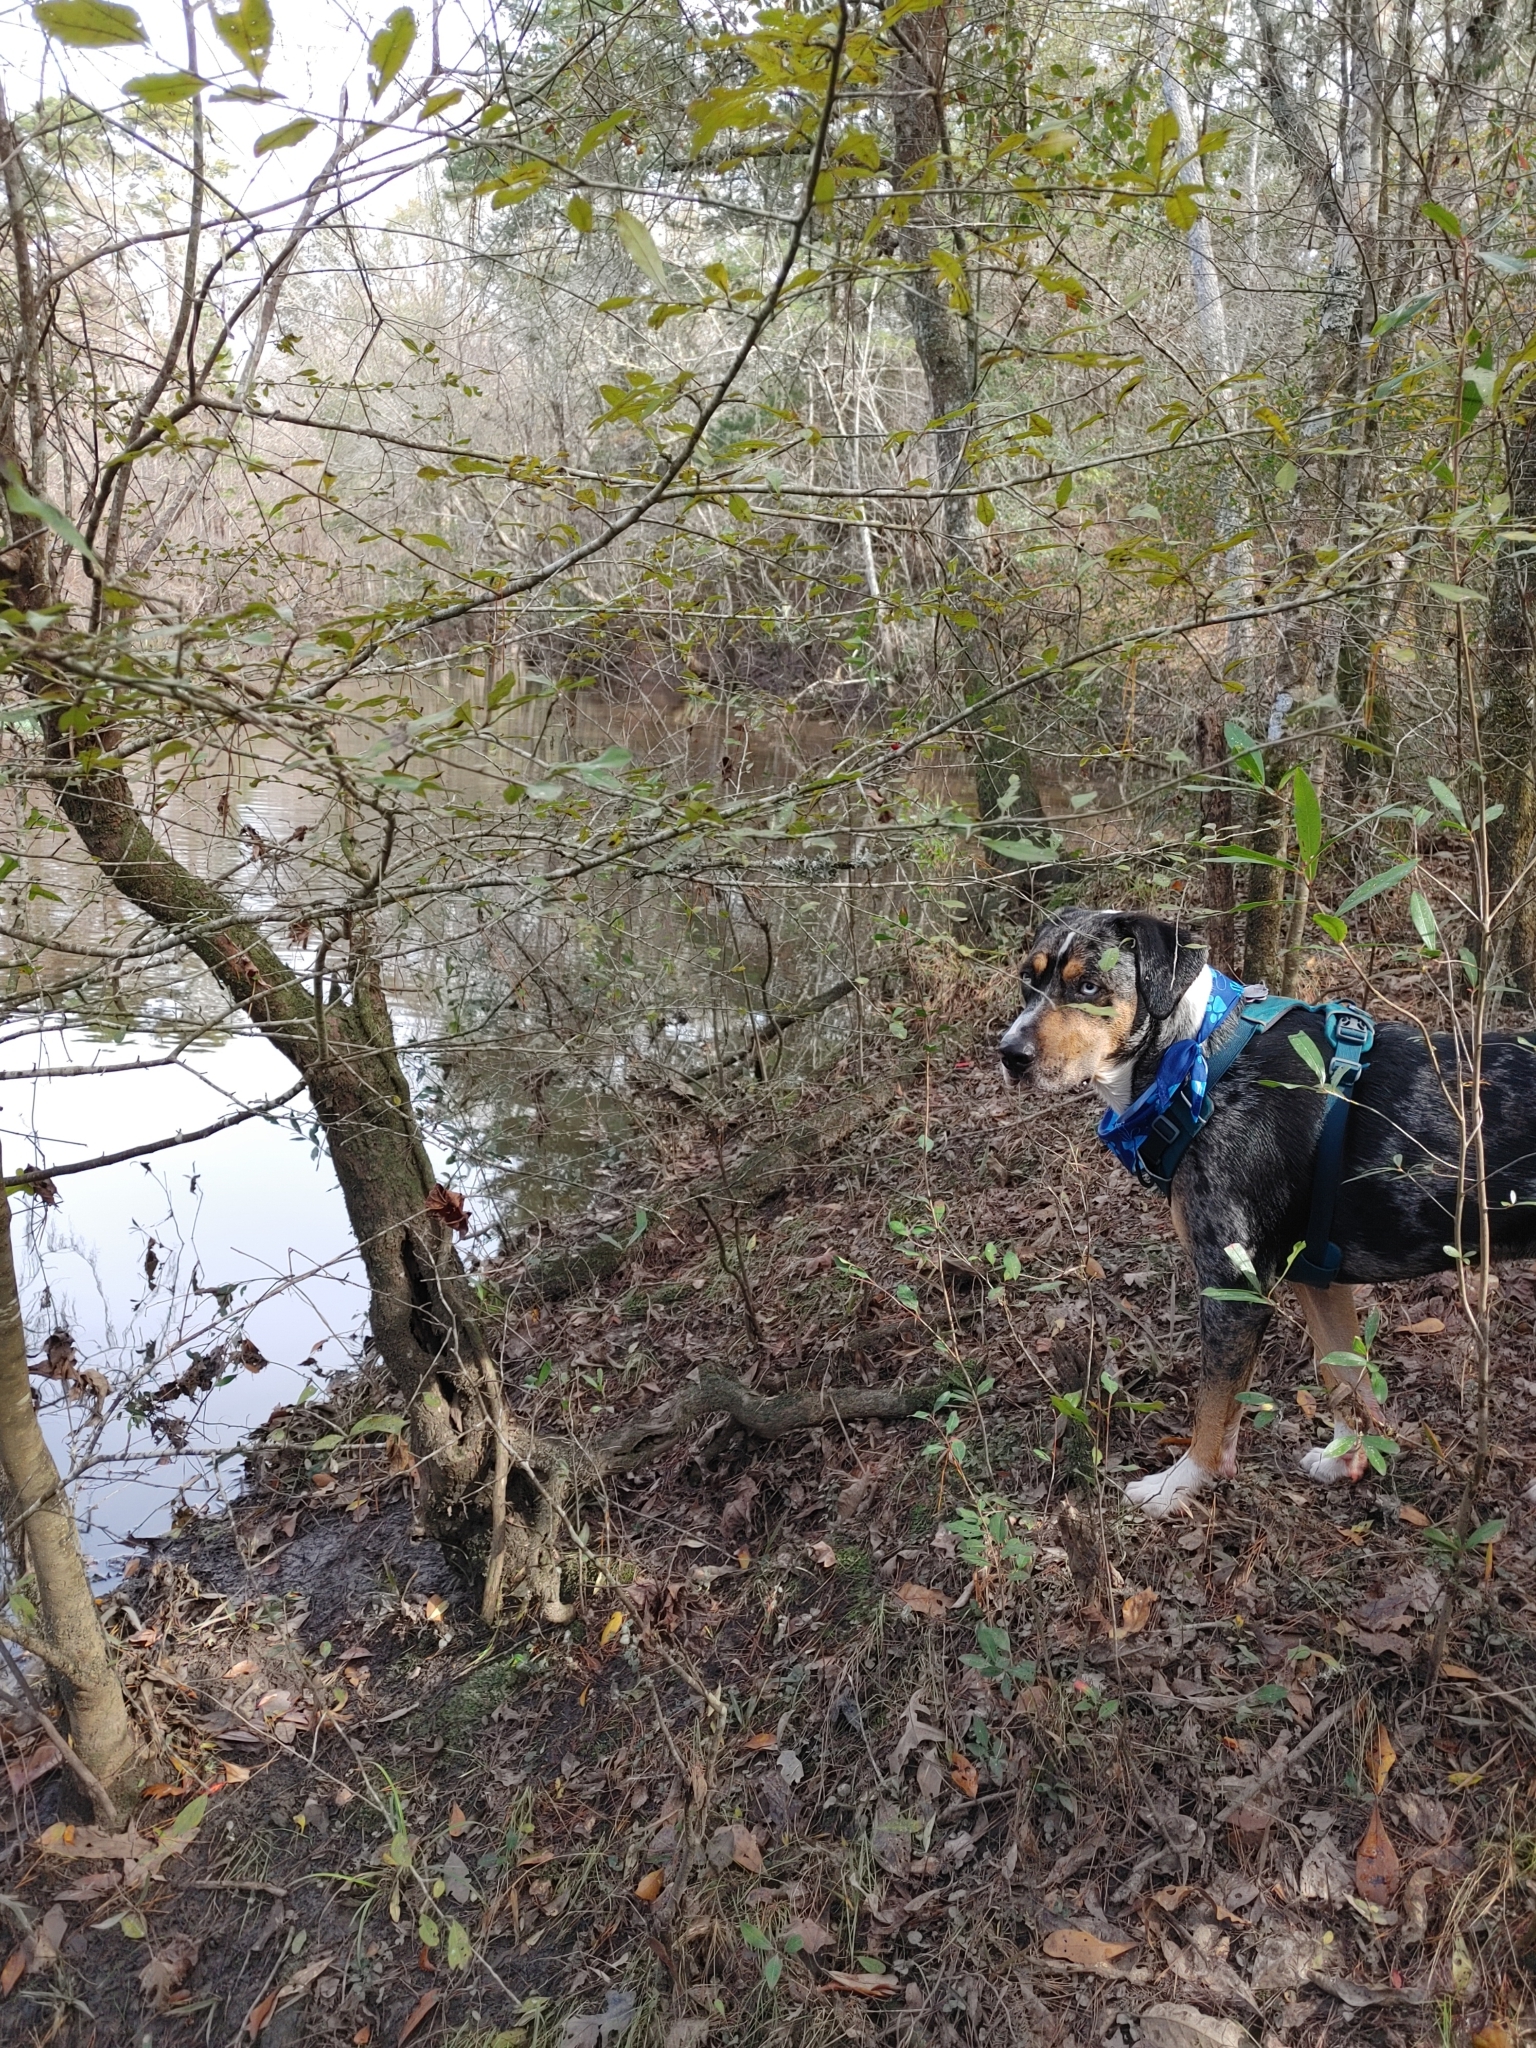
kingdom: Plantae
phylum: Tracheophyta
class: Magnoliopsida
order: Aquifoliales
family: Aquifoliaceae
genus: Ilex
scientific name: Ilex decidua
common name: Possum-haw
